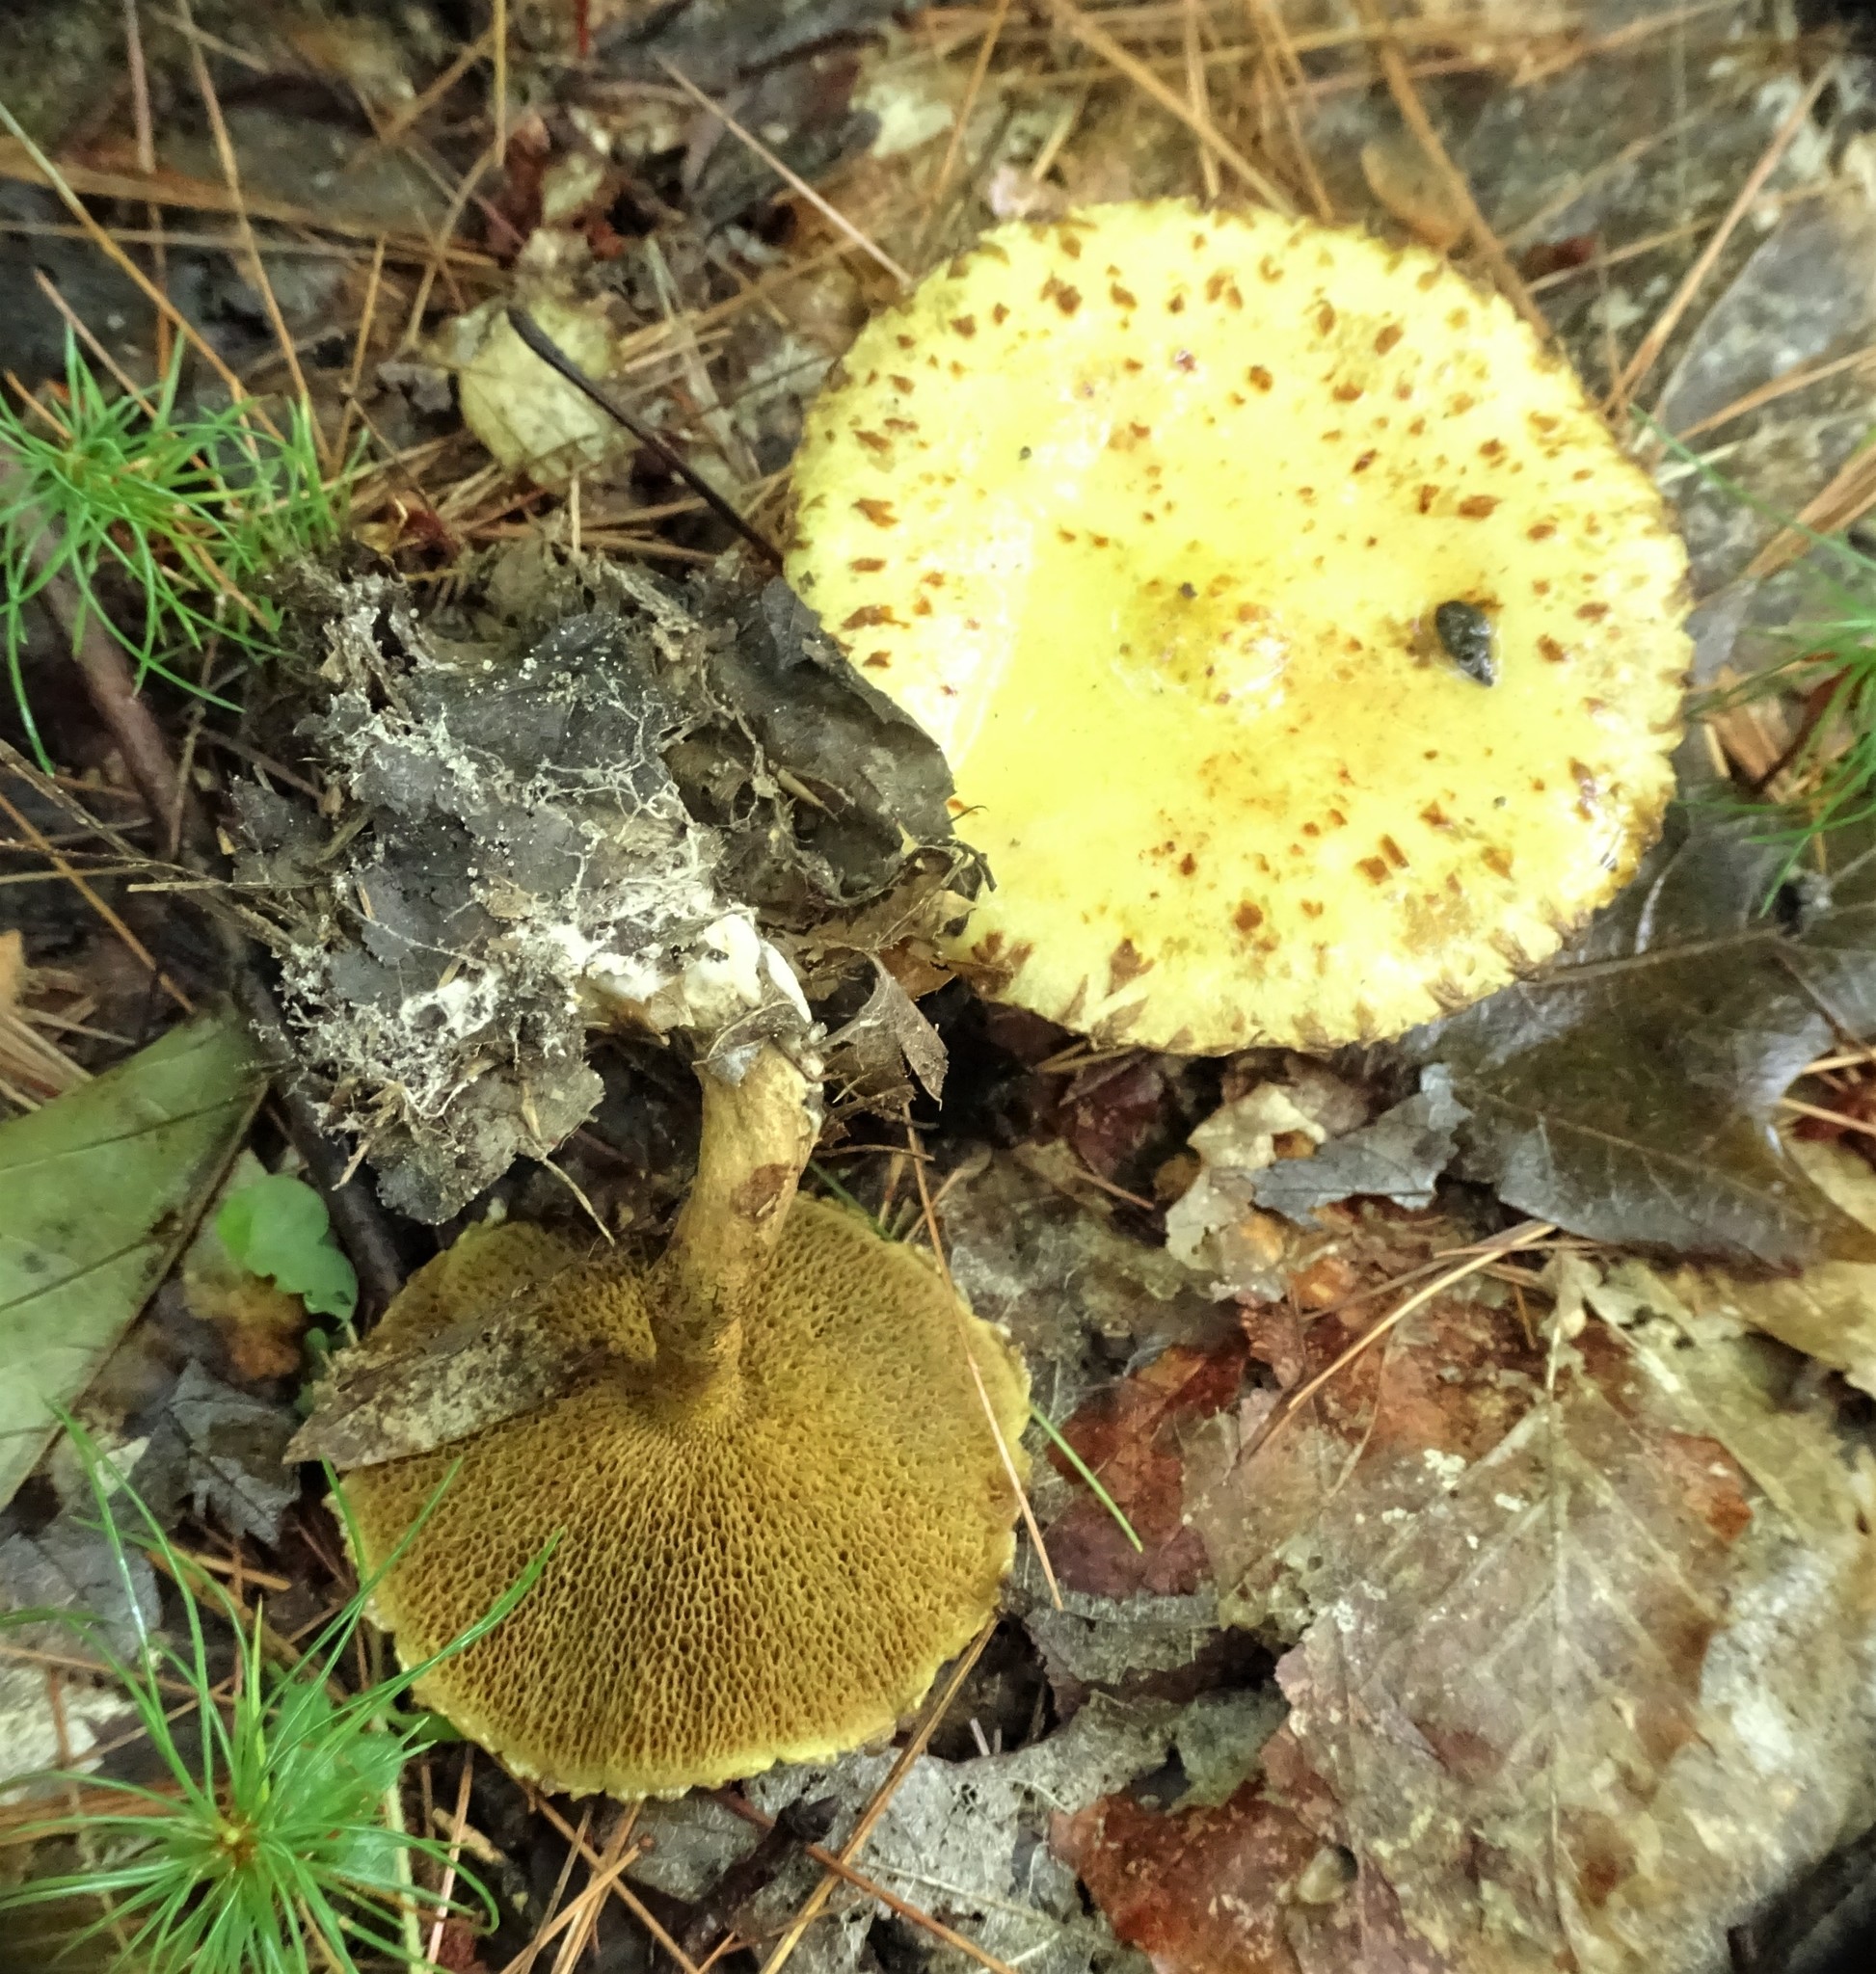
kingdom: Fungi
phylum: Basidiomycota
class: Agaricomycetes
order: Boletales
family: Suillaceae
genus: Suillus
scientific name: Suillus americanus
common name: Chicken fat mushroom
